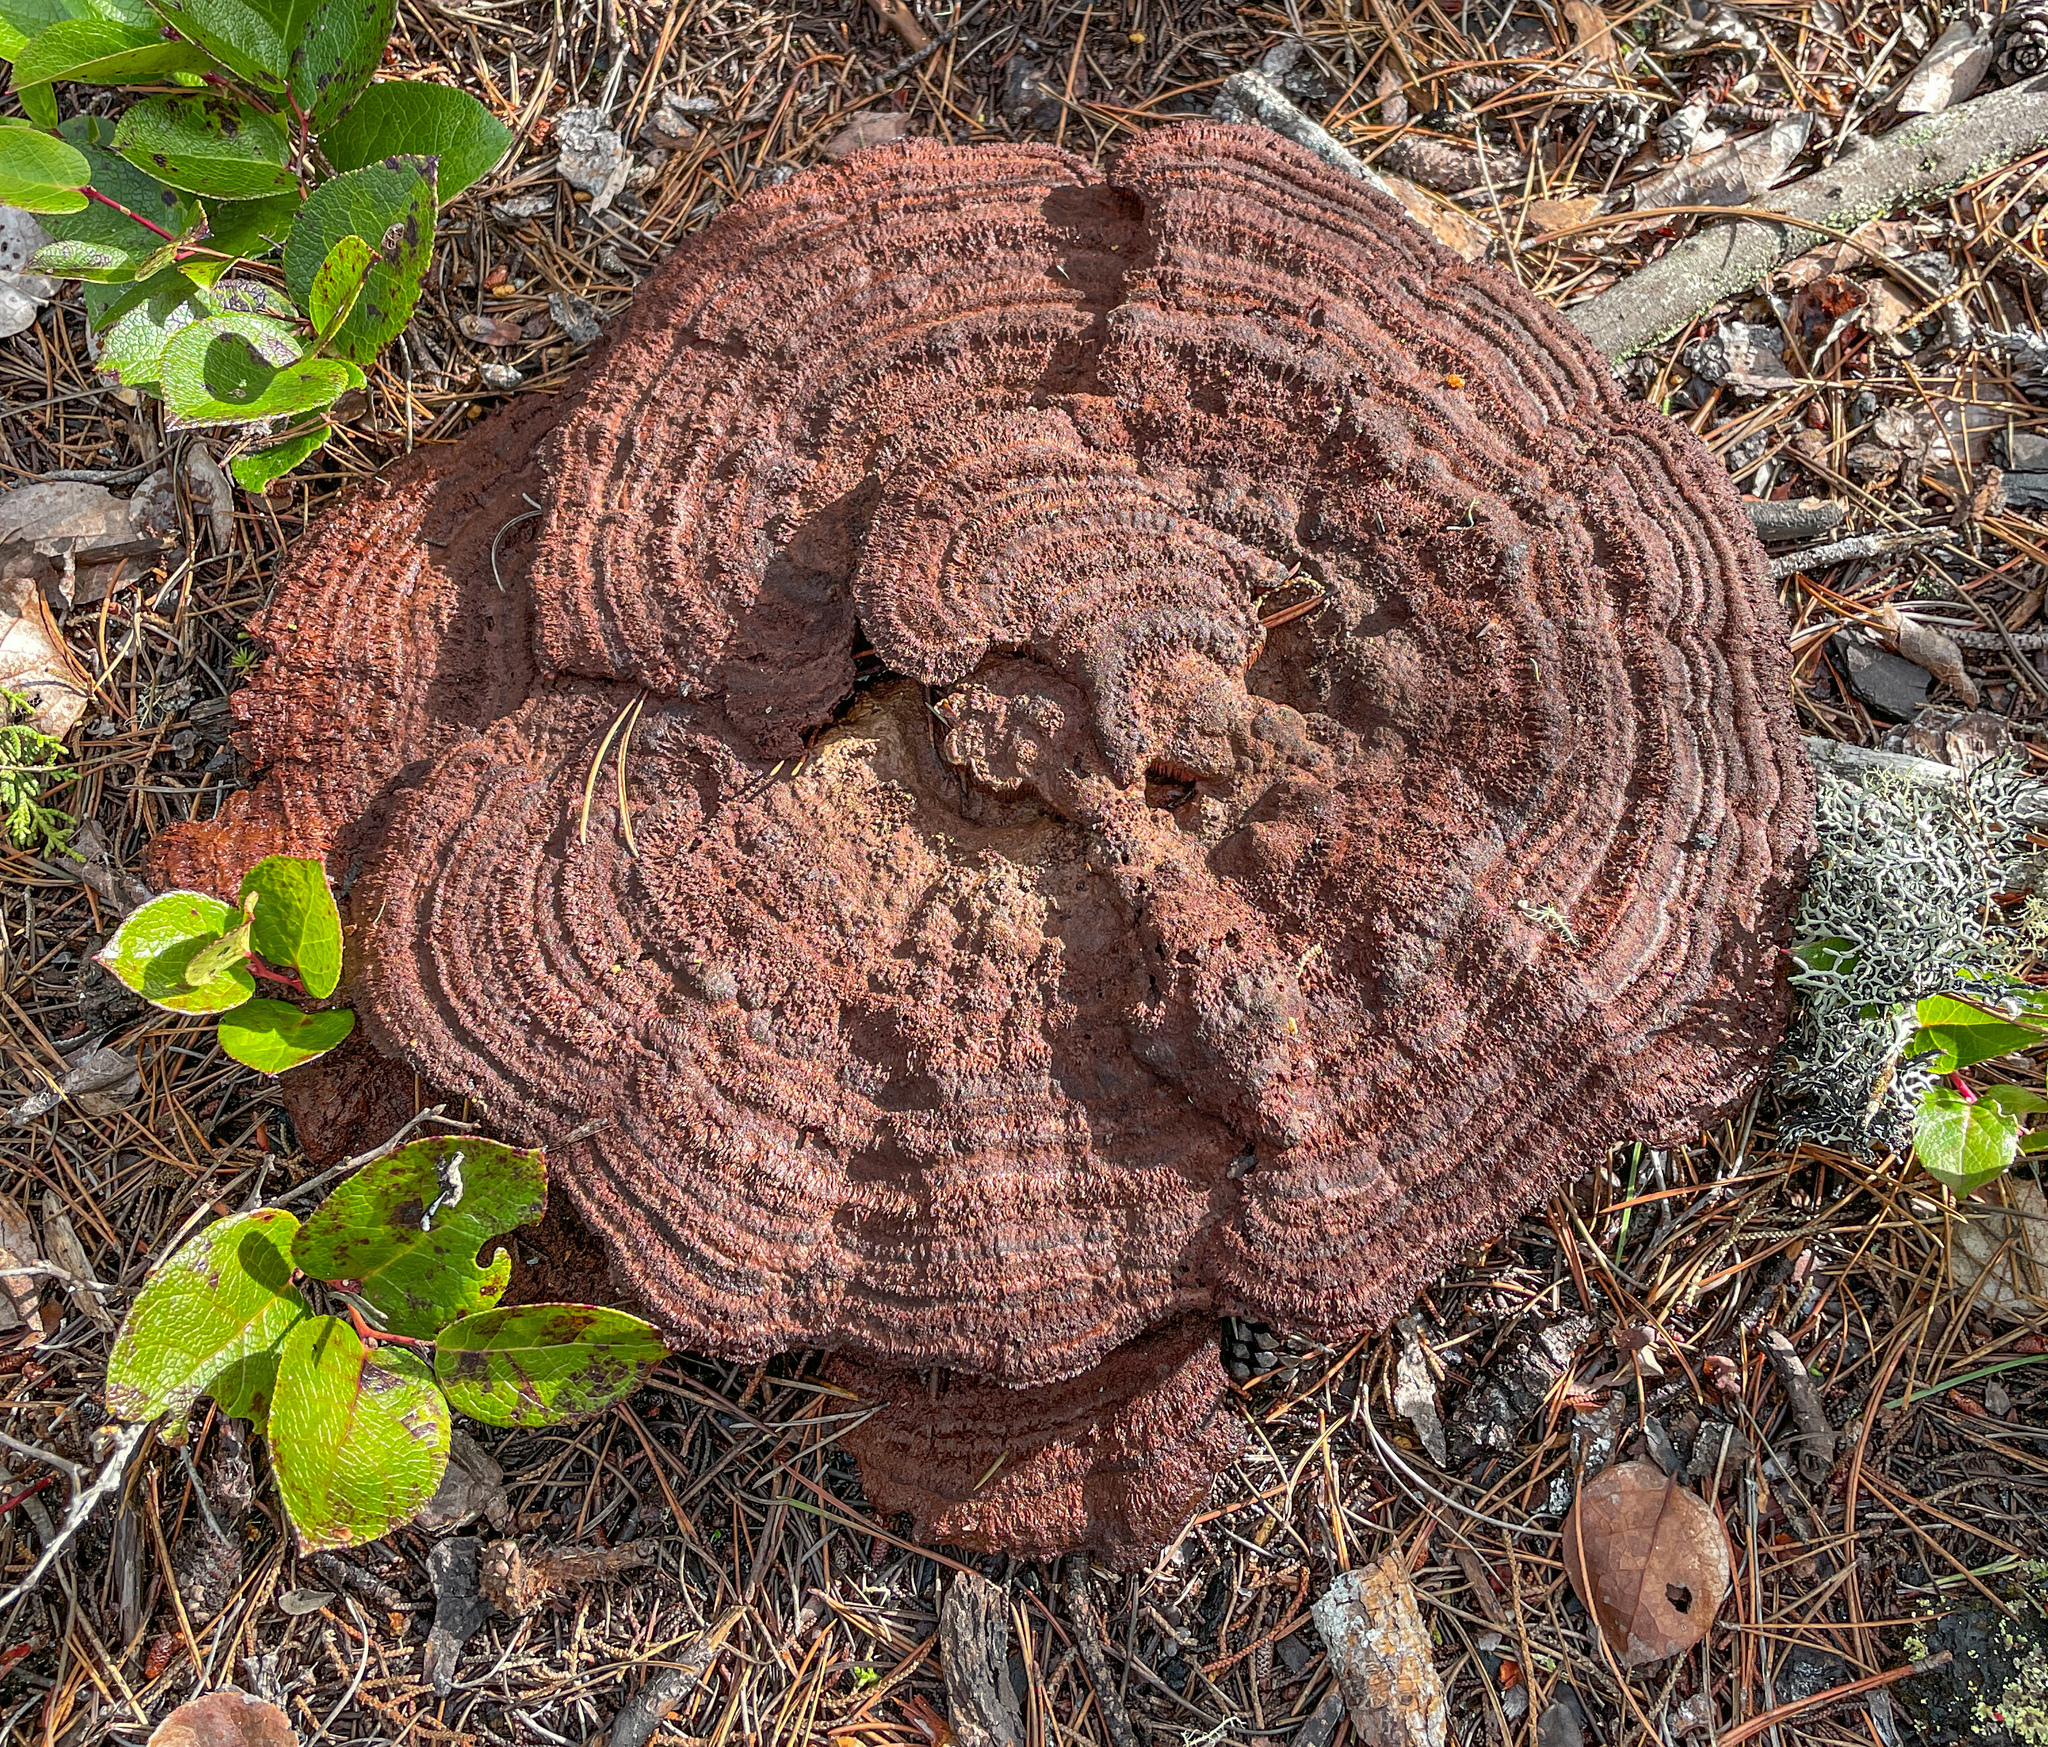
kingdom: Fungi
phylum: Basidiomycota
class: Agaricomycetes
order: Polyporales
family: Laetiporaceae
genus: Phaeolus
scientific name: Phaeolus schweinitzii
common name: Dyer's mazegill
